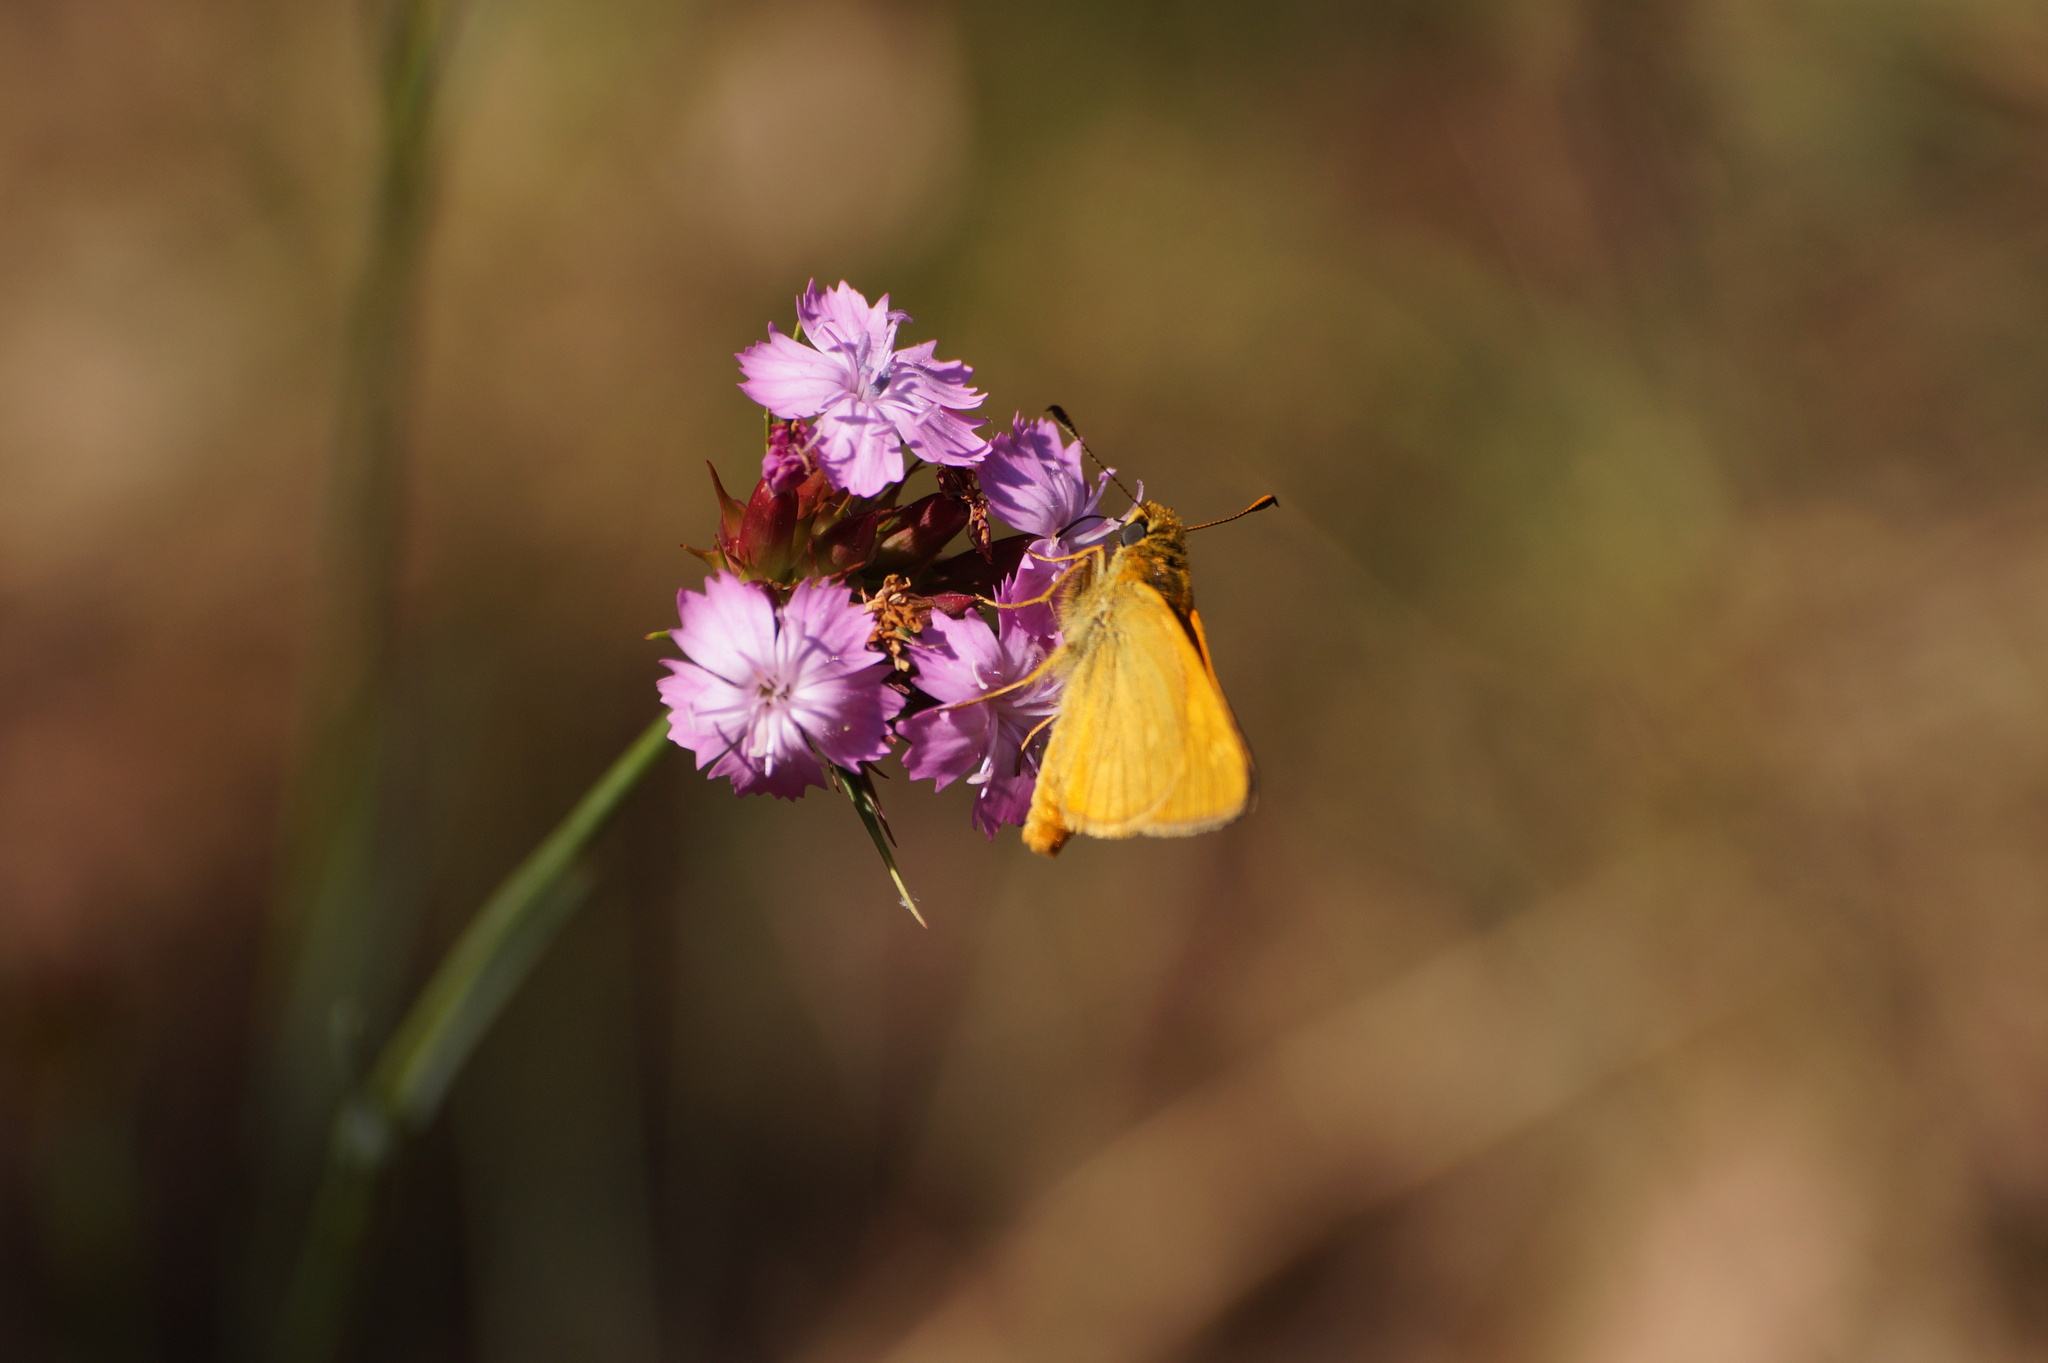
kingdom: Animalia
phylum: Arthropoda
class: Insecta
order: Lepidoptera
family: Hesperiidae
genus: Ochlodes
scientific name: Ochlodes venata
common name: Large skipper
